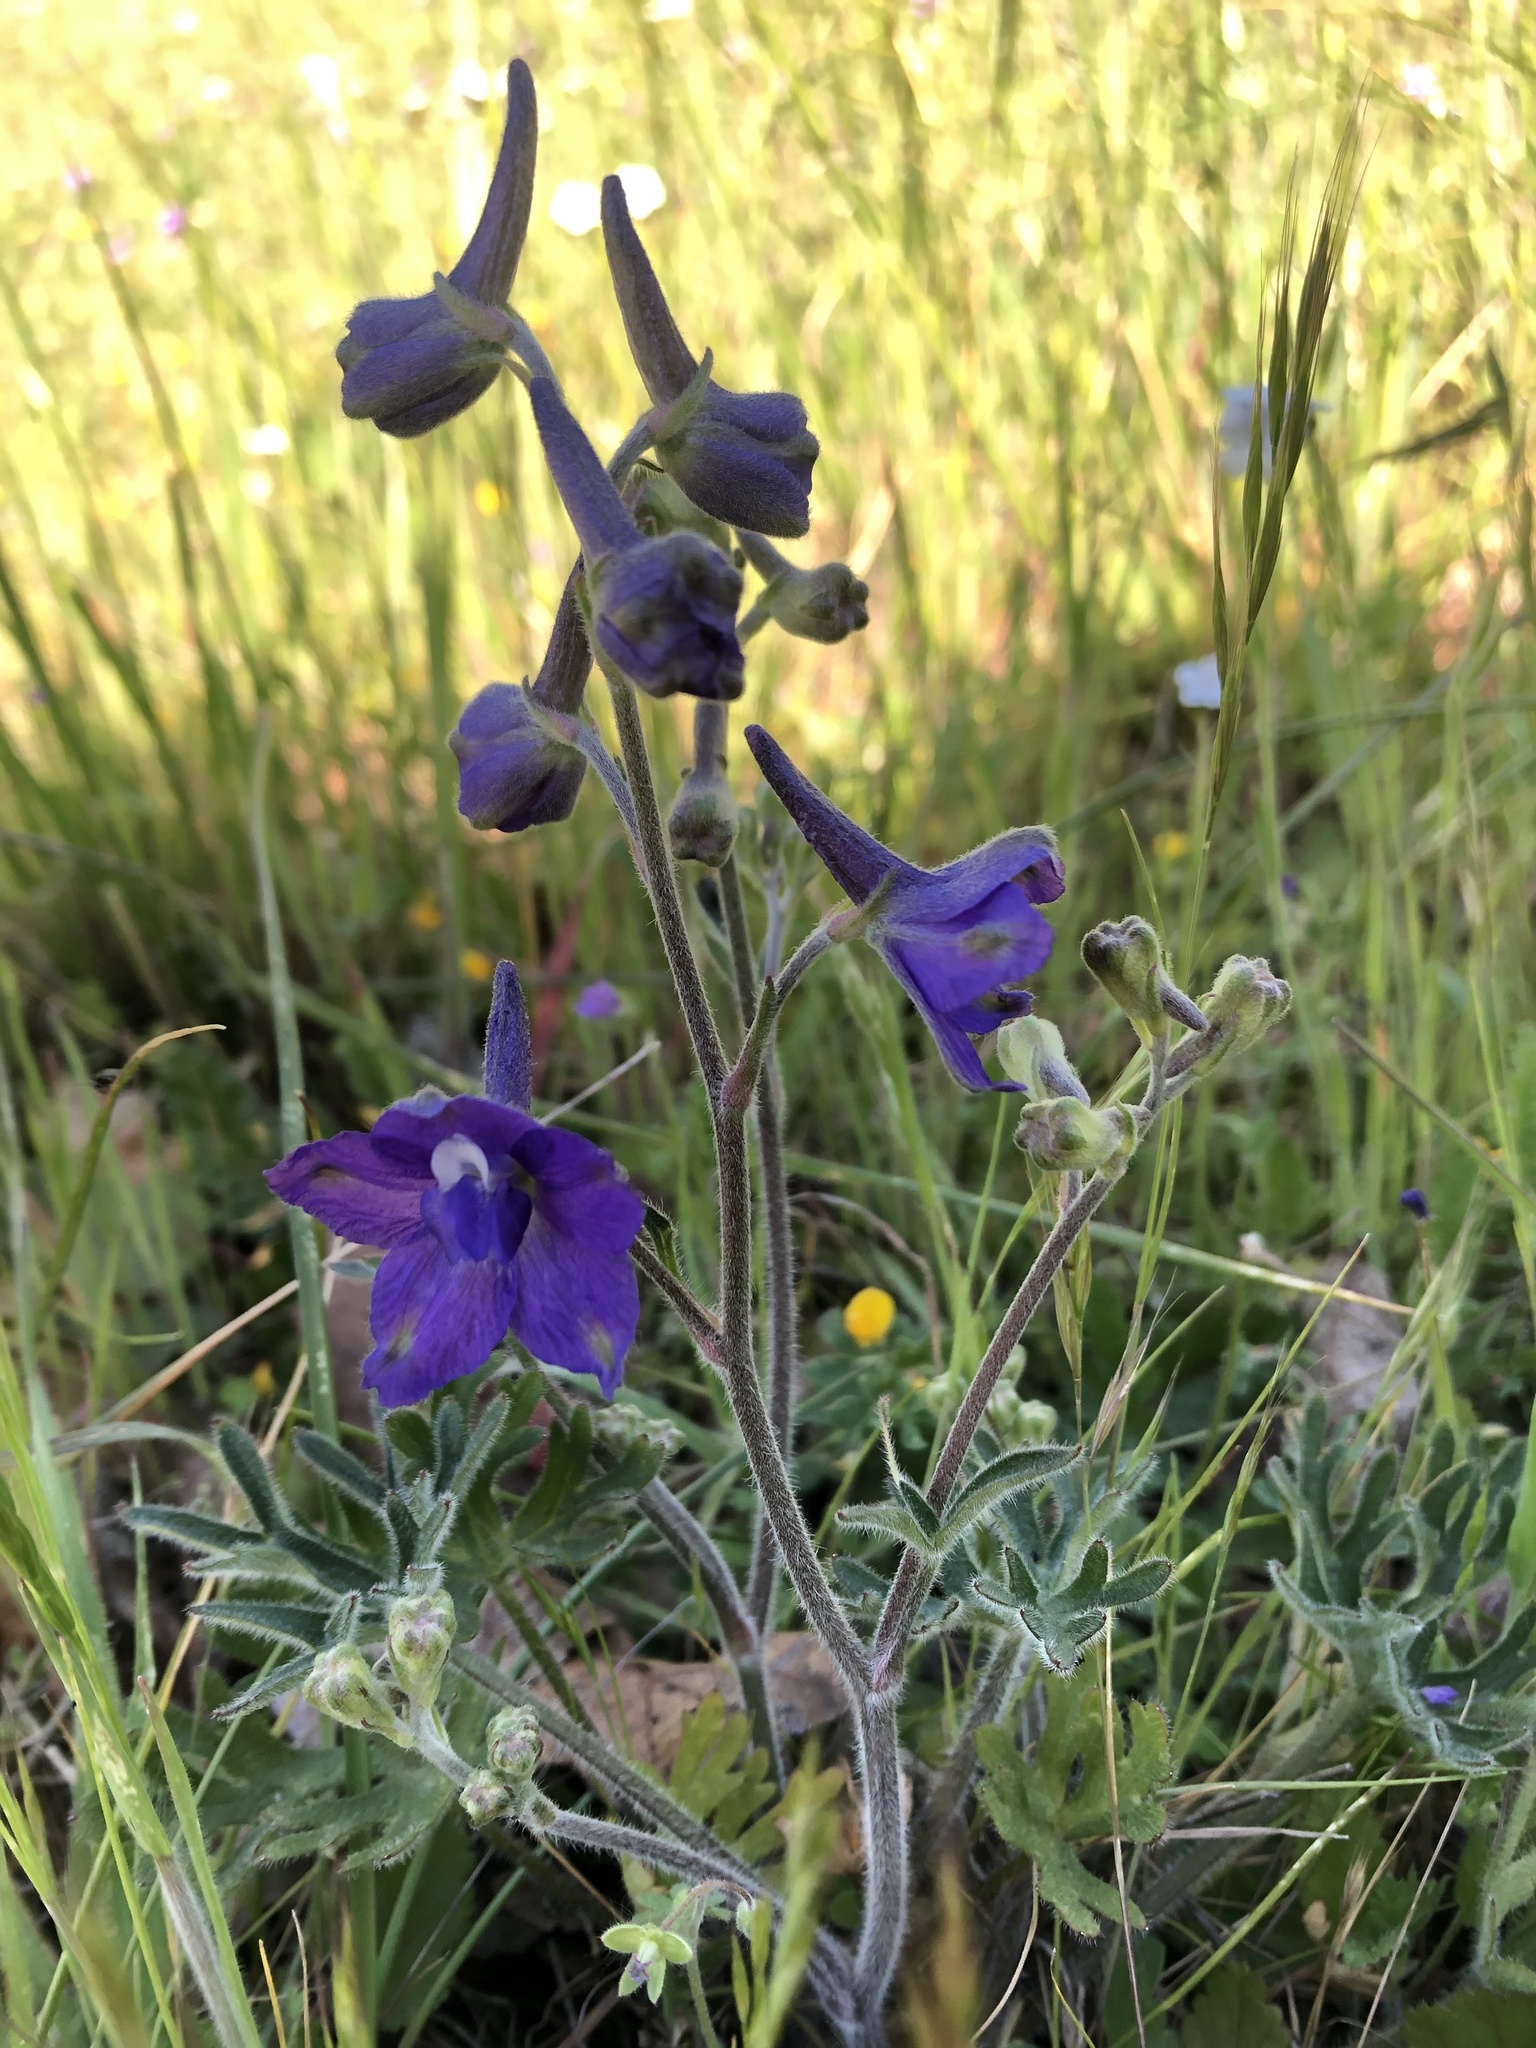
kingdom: Plantae
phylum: Tracheophyta
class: Magnoliopsida
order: Ranunculales
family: Ranunculaceae
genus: Delphinium
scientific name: Delphinium variegatum
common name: Royal larkspur
